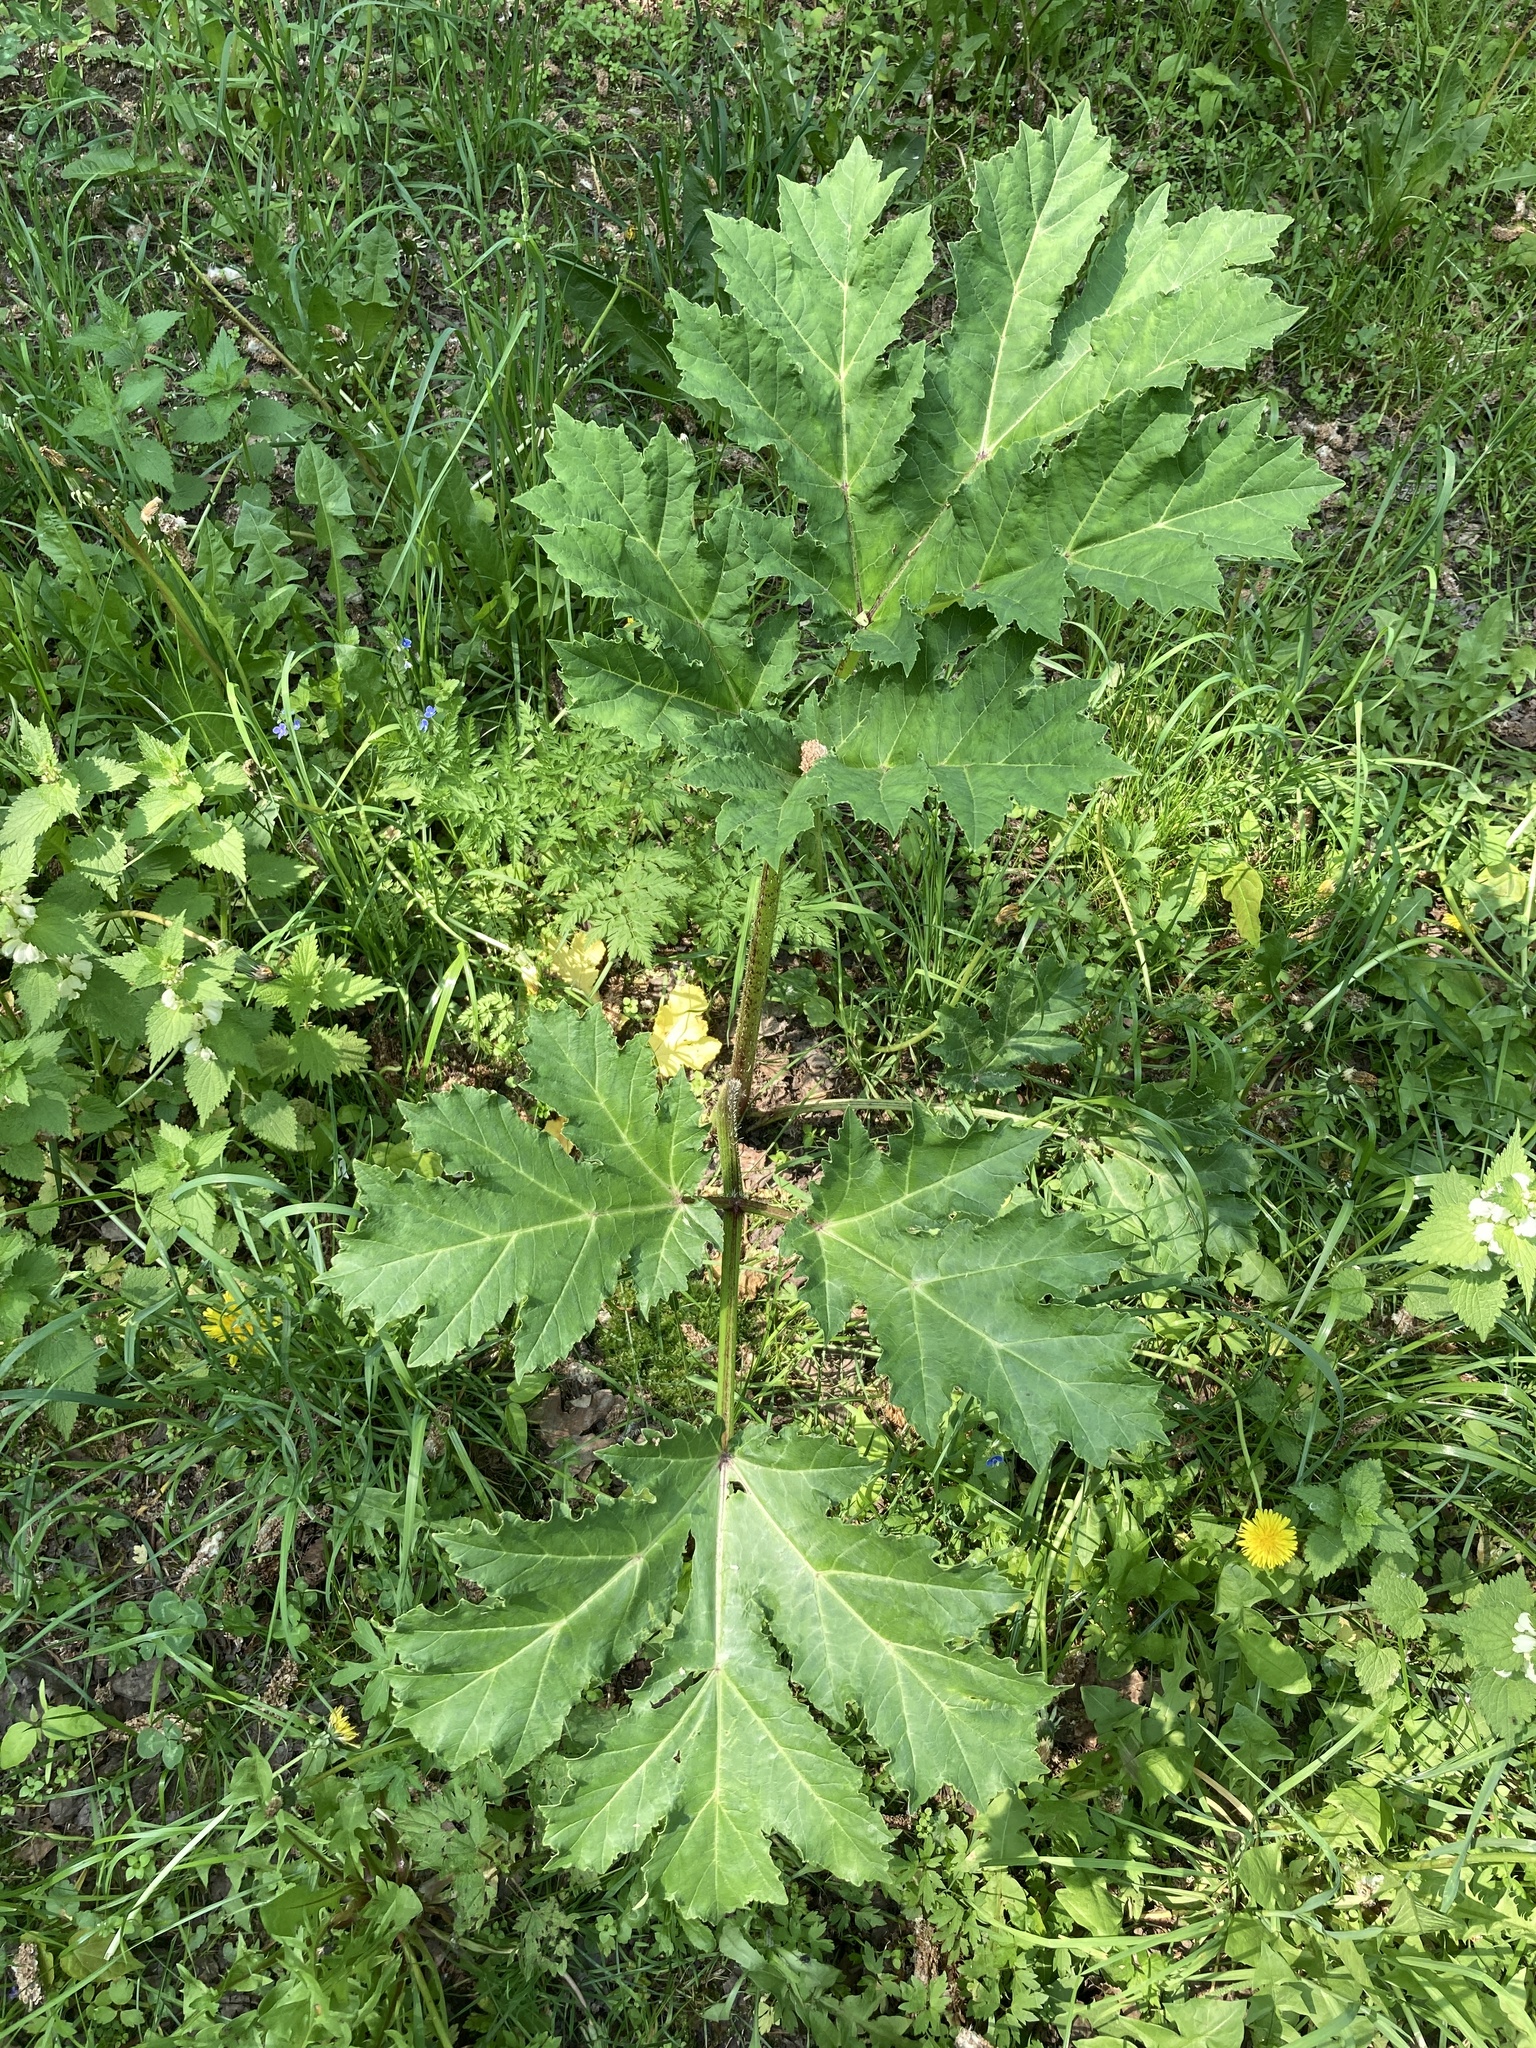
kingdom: Plantae
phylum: Tracheophyta
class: Magnoliopsida
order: Apiales
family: Apiaceae
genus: Heracleum
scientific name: Heracleum sosnowskyi
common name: Sosnowsky's hogweed
